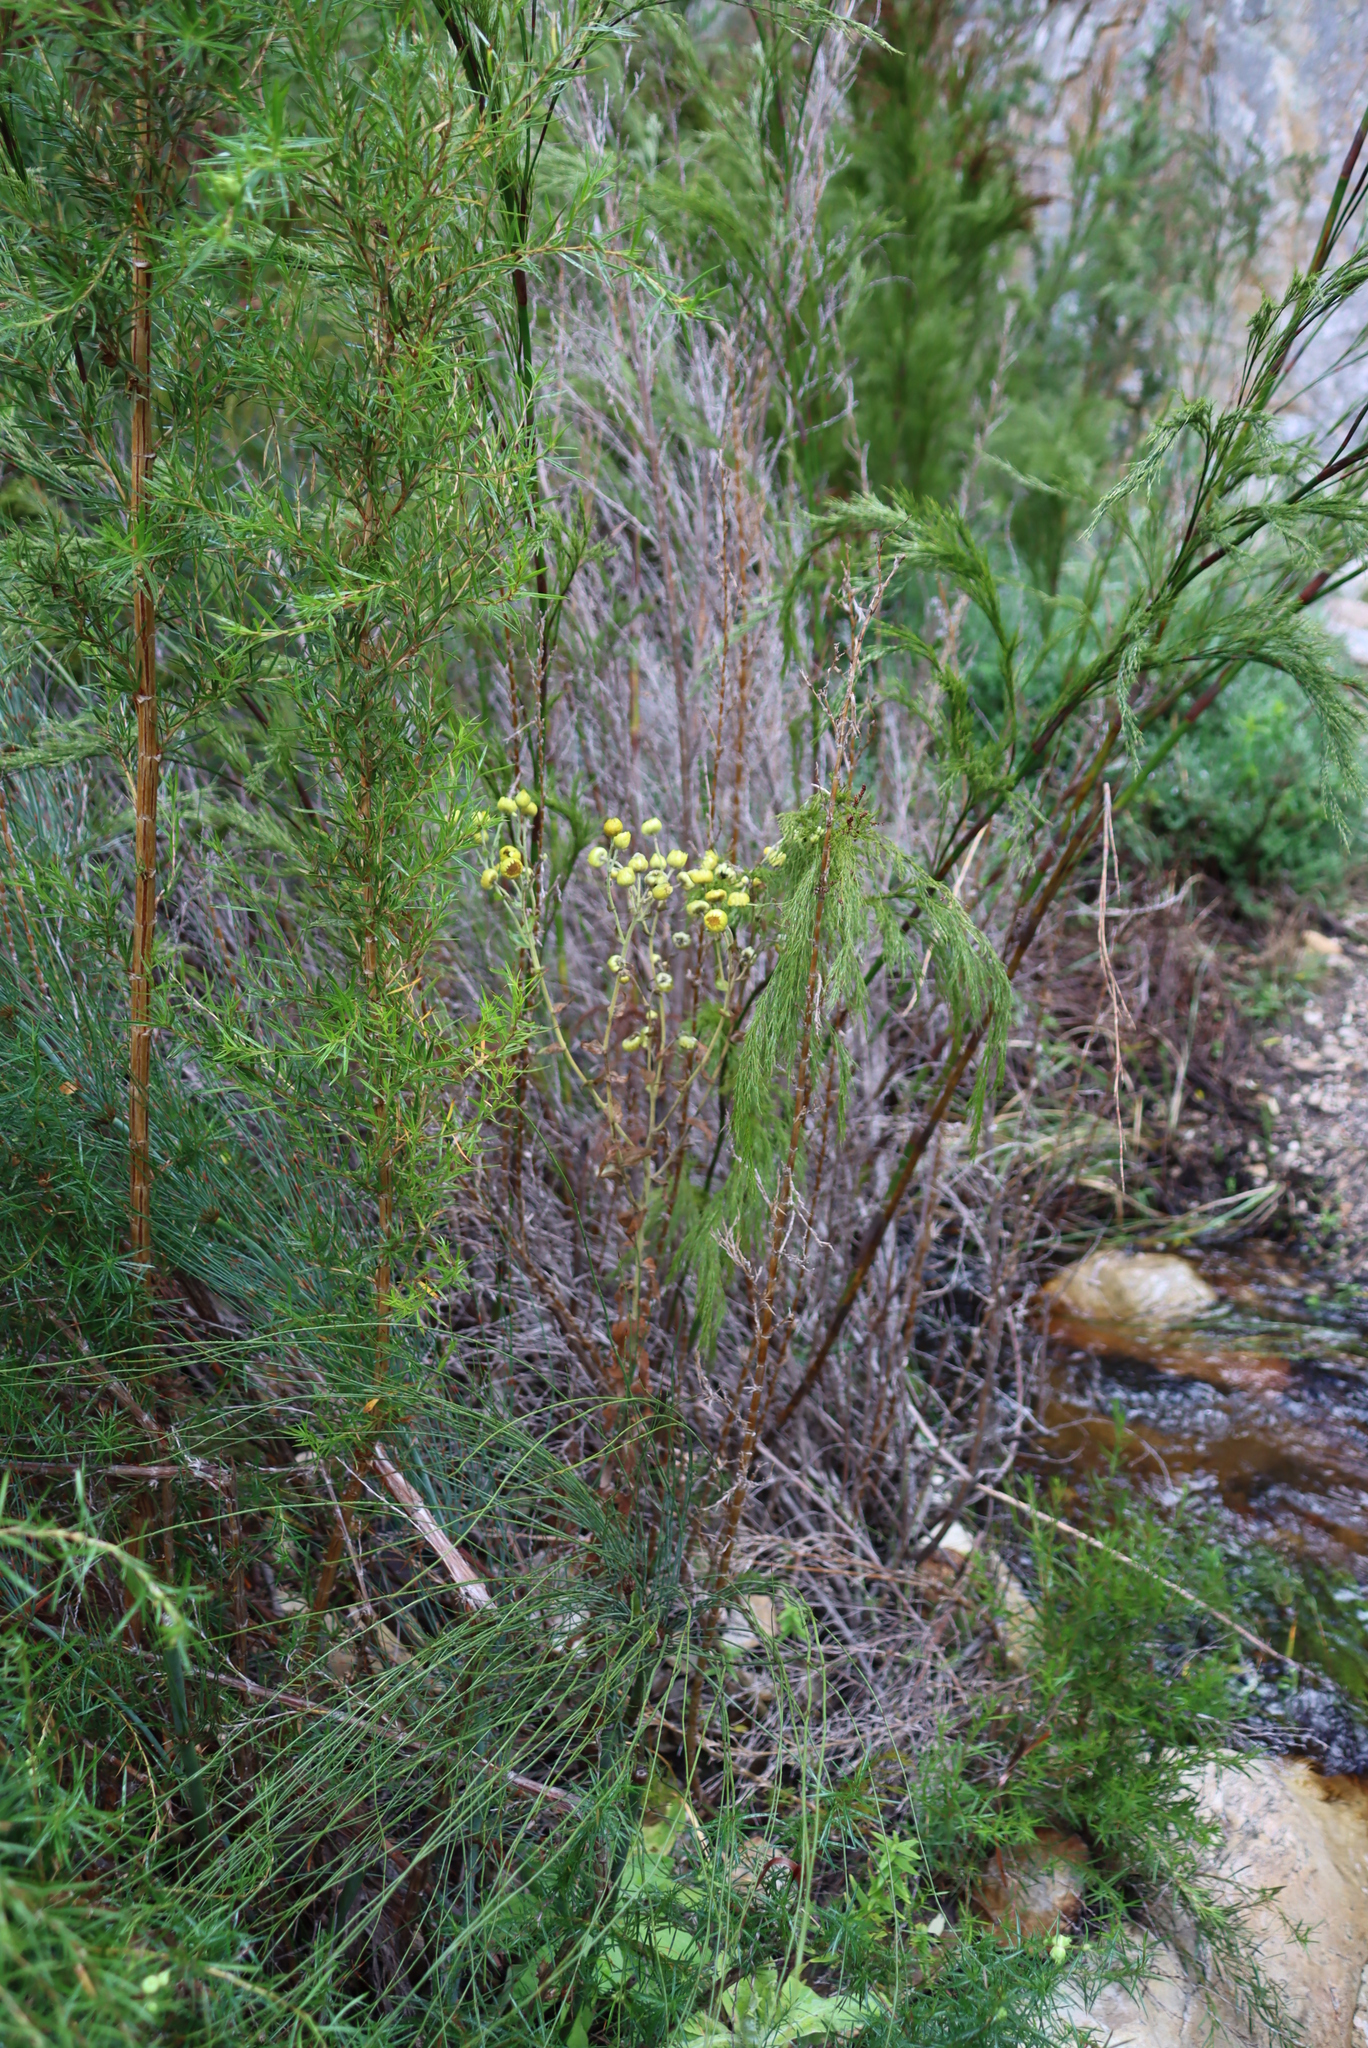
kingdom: Plantae
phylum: Tracheophyta
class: Magnoliopsida
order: Asterales
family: Asteraceae
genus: Helichrysum
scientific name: Helichrysum foetidum
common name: Stinking everlasting
